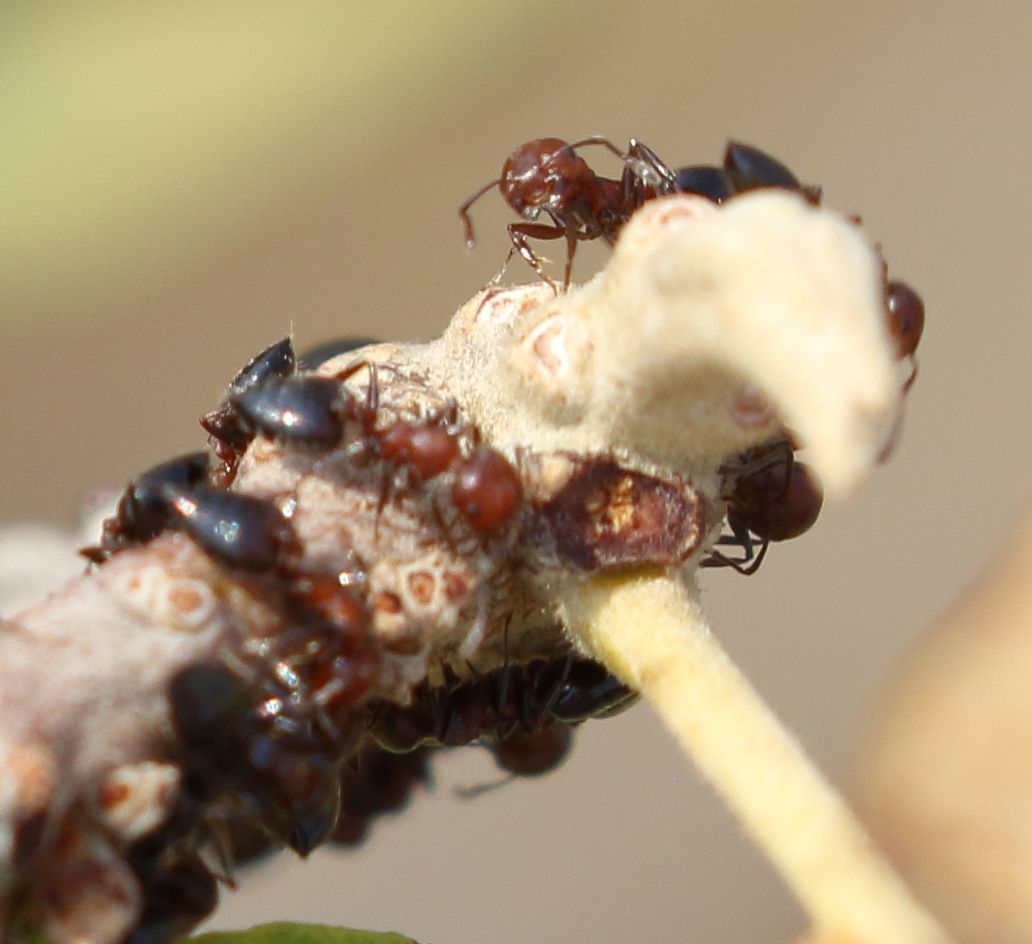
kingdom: Animalia
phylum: Arthropoda
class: Insecta
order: Hymenoptera
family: Formicidae
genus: Crematogaster
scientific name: Crematogaster castanea
